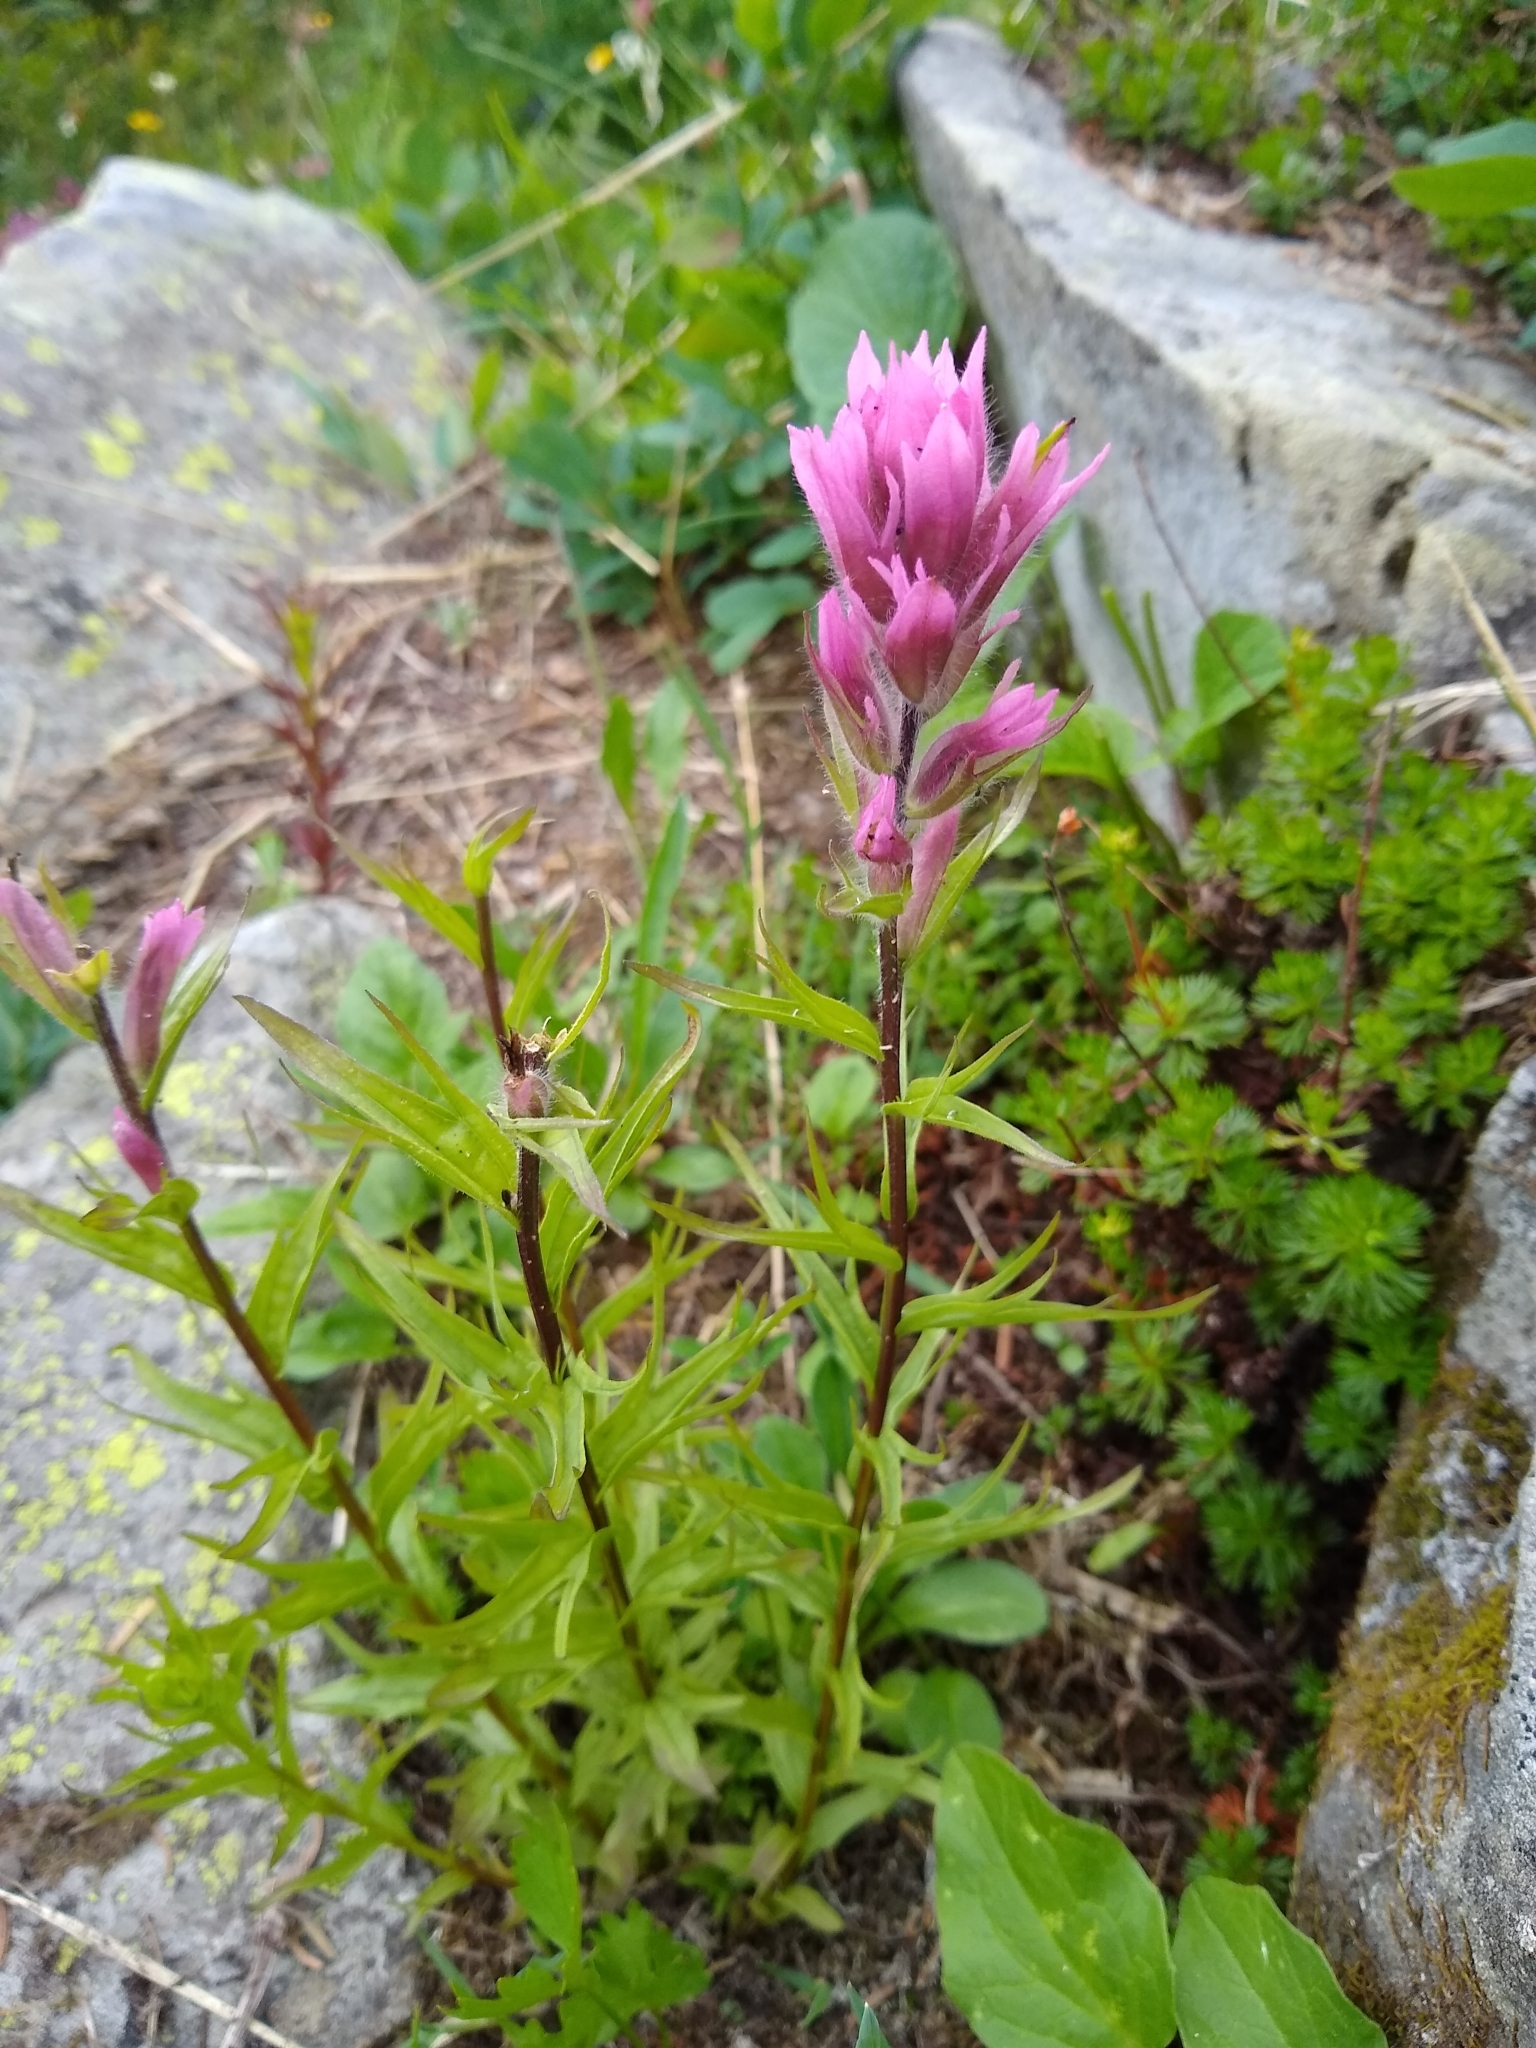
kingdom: Plantae
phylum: Tracheophyta
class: Magnoliopsida
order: Lamiales
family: Orobanchaceae
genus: Castilleja
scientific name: Castilleja parviflora
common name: Mountain paintbrush
